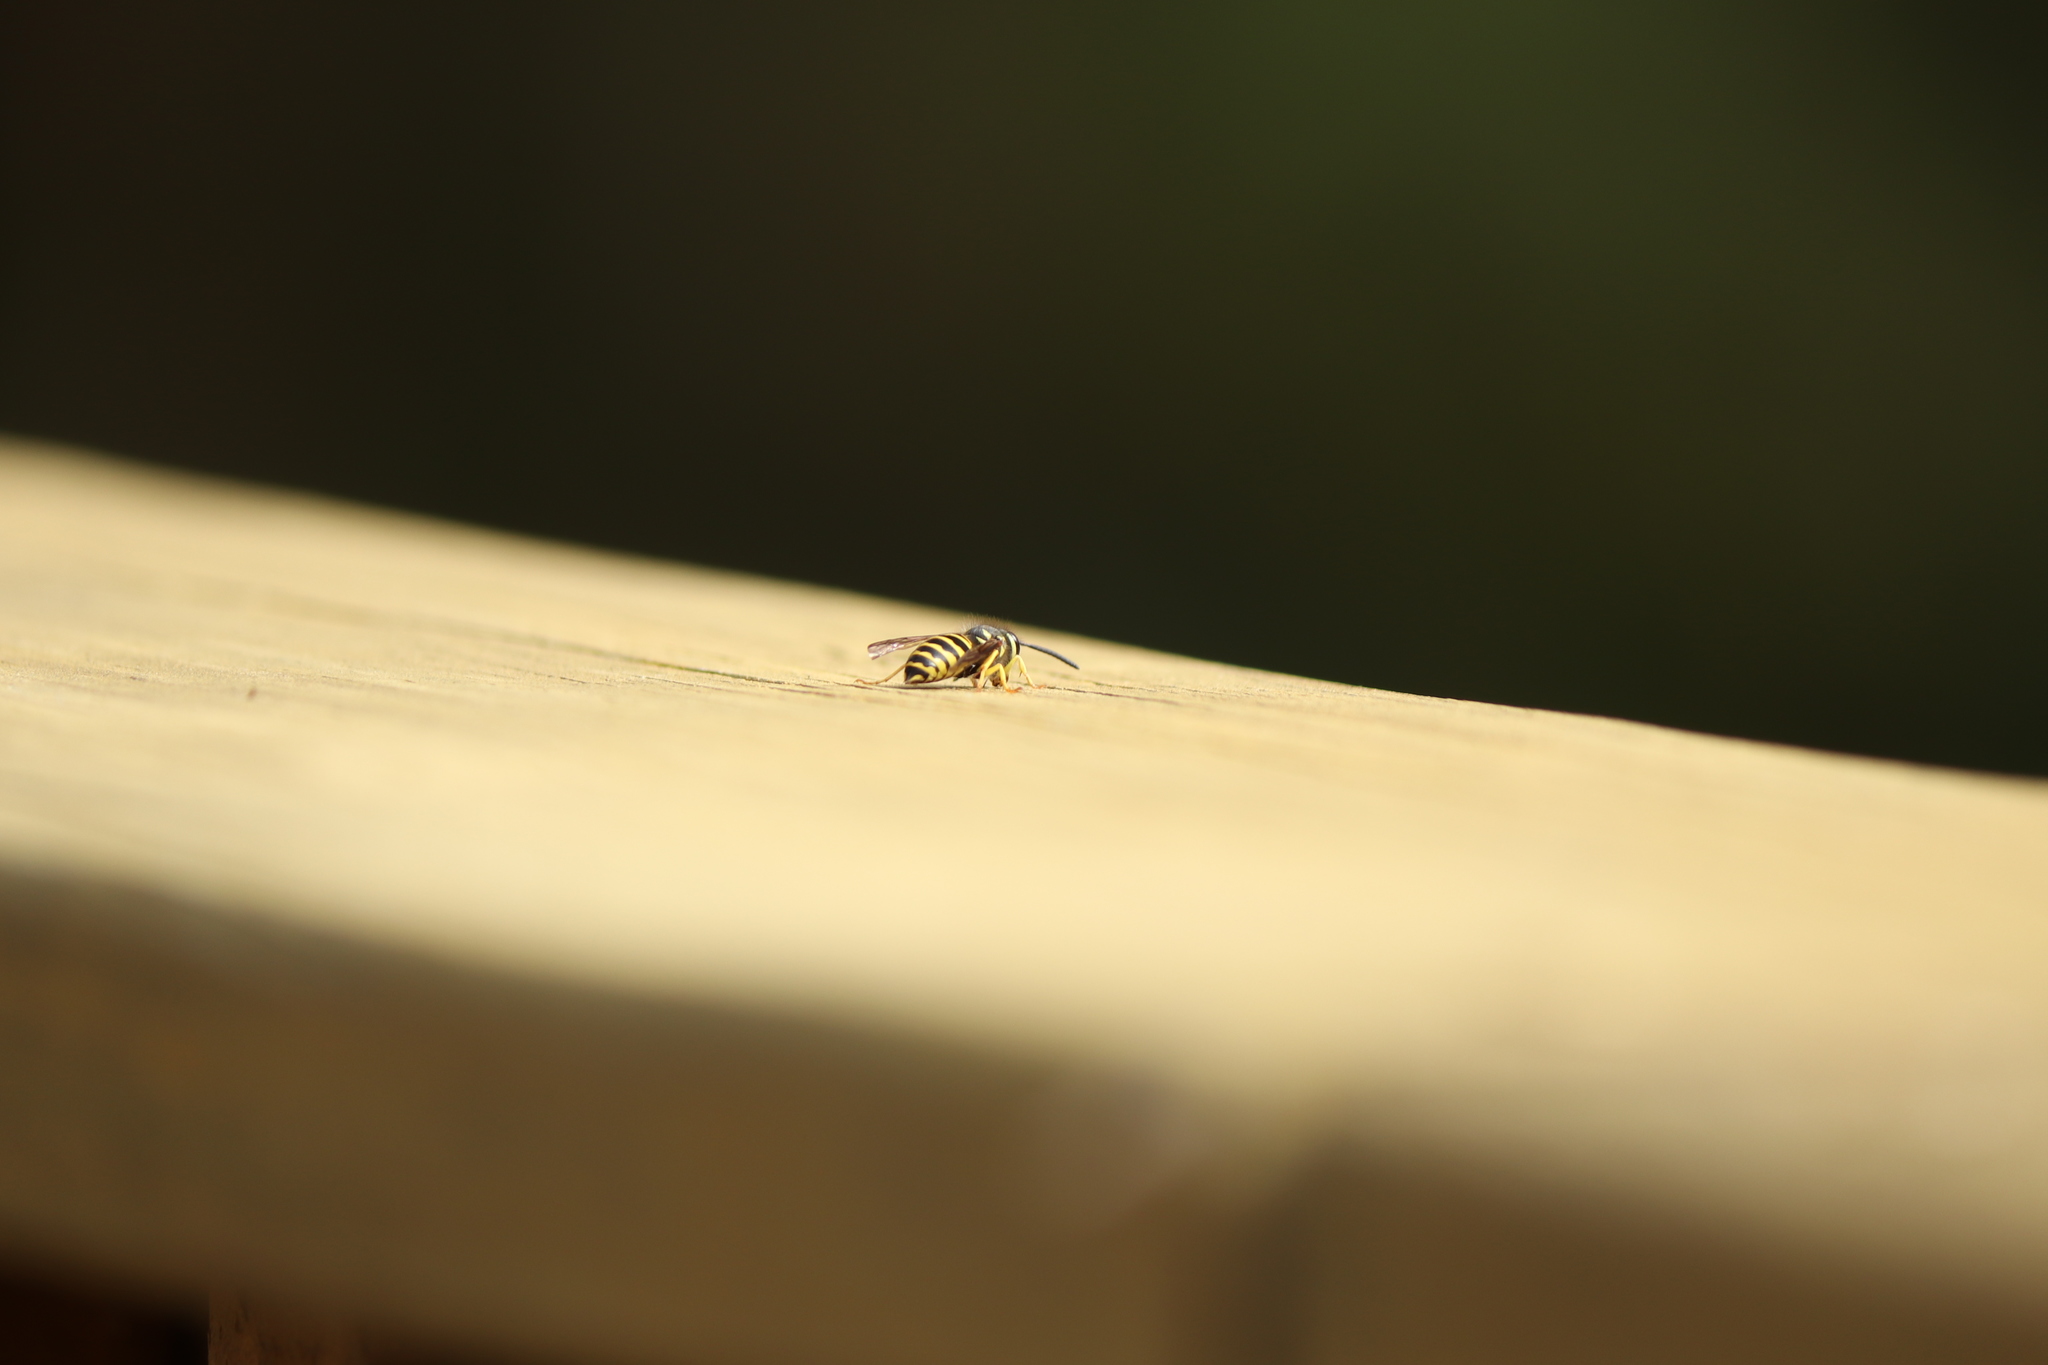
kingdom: Animalia
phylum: Arthropoda
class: Insecta
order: Hymenoptera
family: Vespidae
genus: Vespula
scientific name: Vespula maculifrons
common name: Eastern yellowjacket
